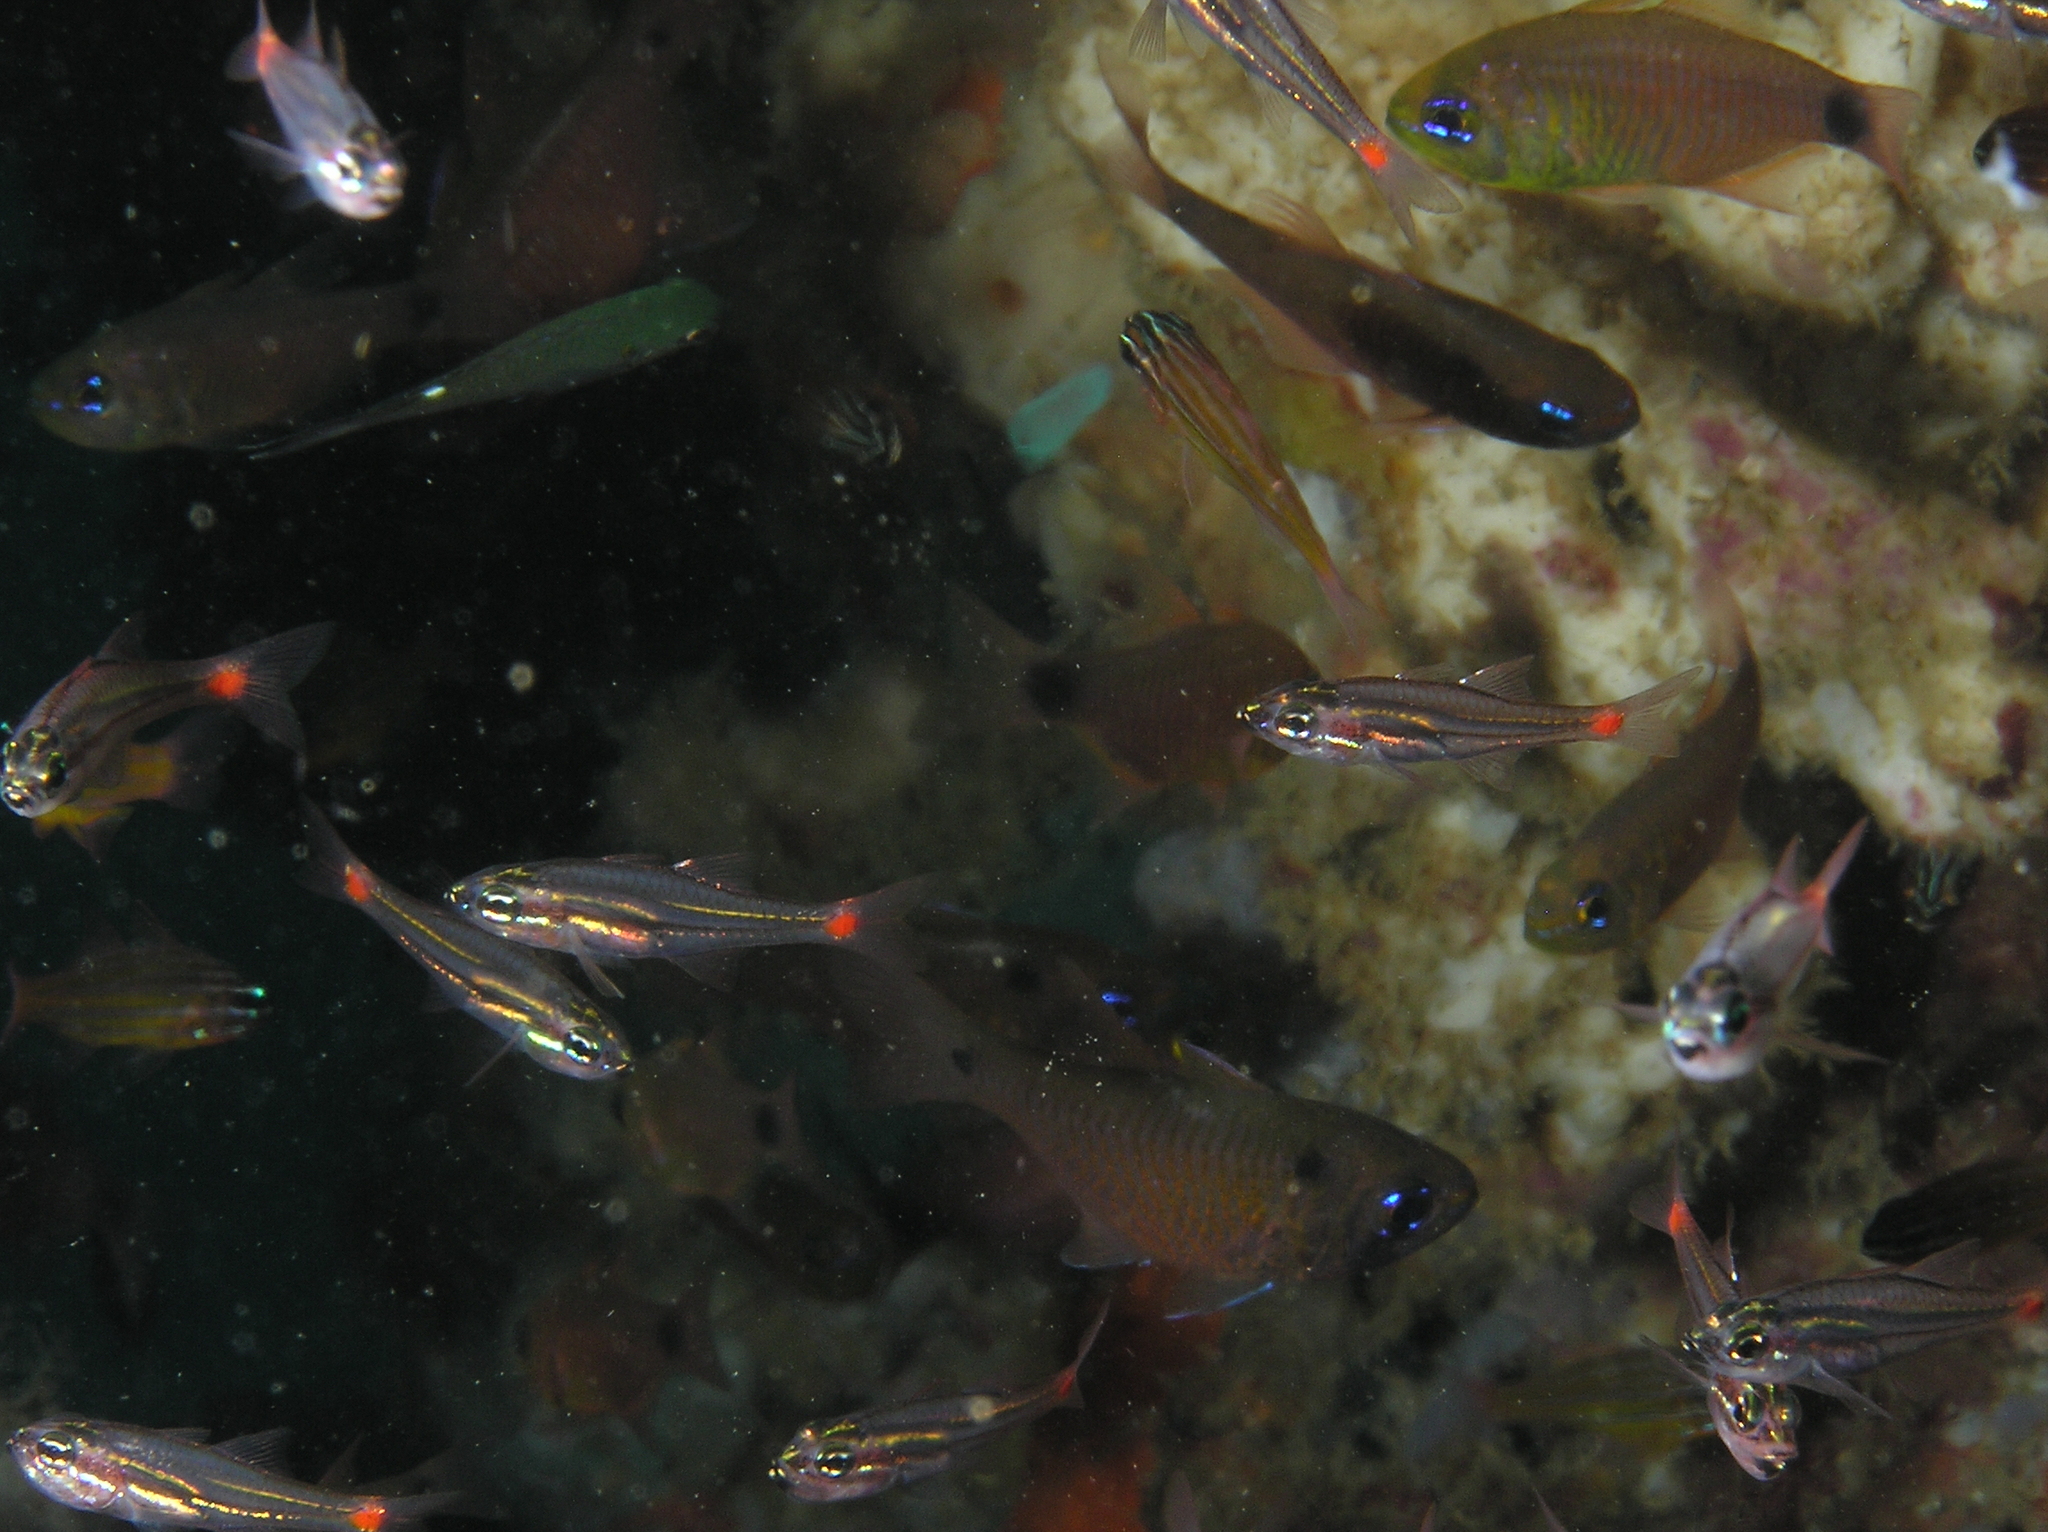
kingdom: Animalia
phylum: Chordata
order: Perciformes
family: Apogonidae
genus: Taeniamia
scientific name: Taeniamia fucata
